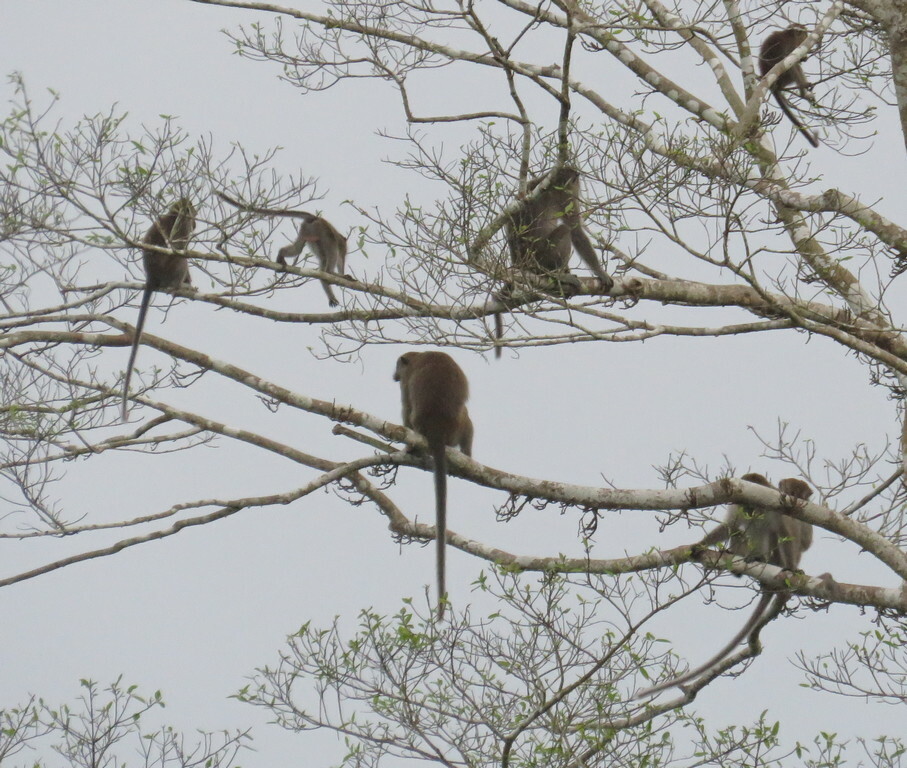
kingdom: Animalia
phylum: Chordata
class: Mammalia
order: Primates
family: Cercopithecidae
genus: Macaca
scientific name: Macaca fascicularis
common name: Crab-eating macaque
